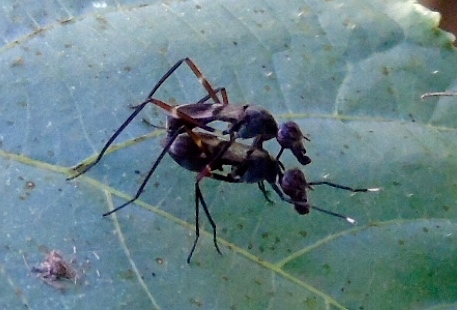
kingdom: Animalia
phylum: Arthropoda
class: Insecta
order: Diptera
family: Micropezidae
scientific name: Micropezidae
